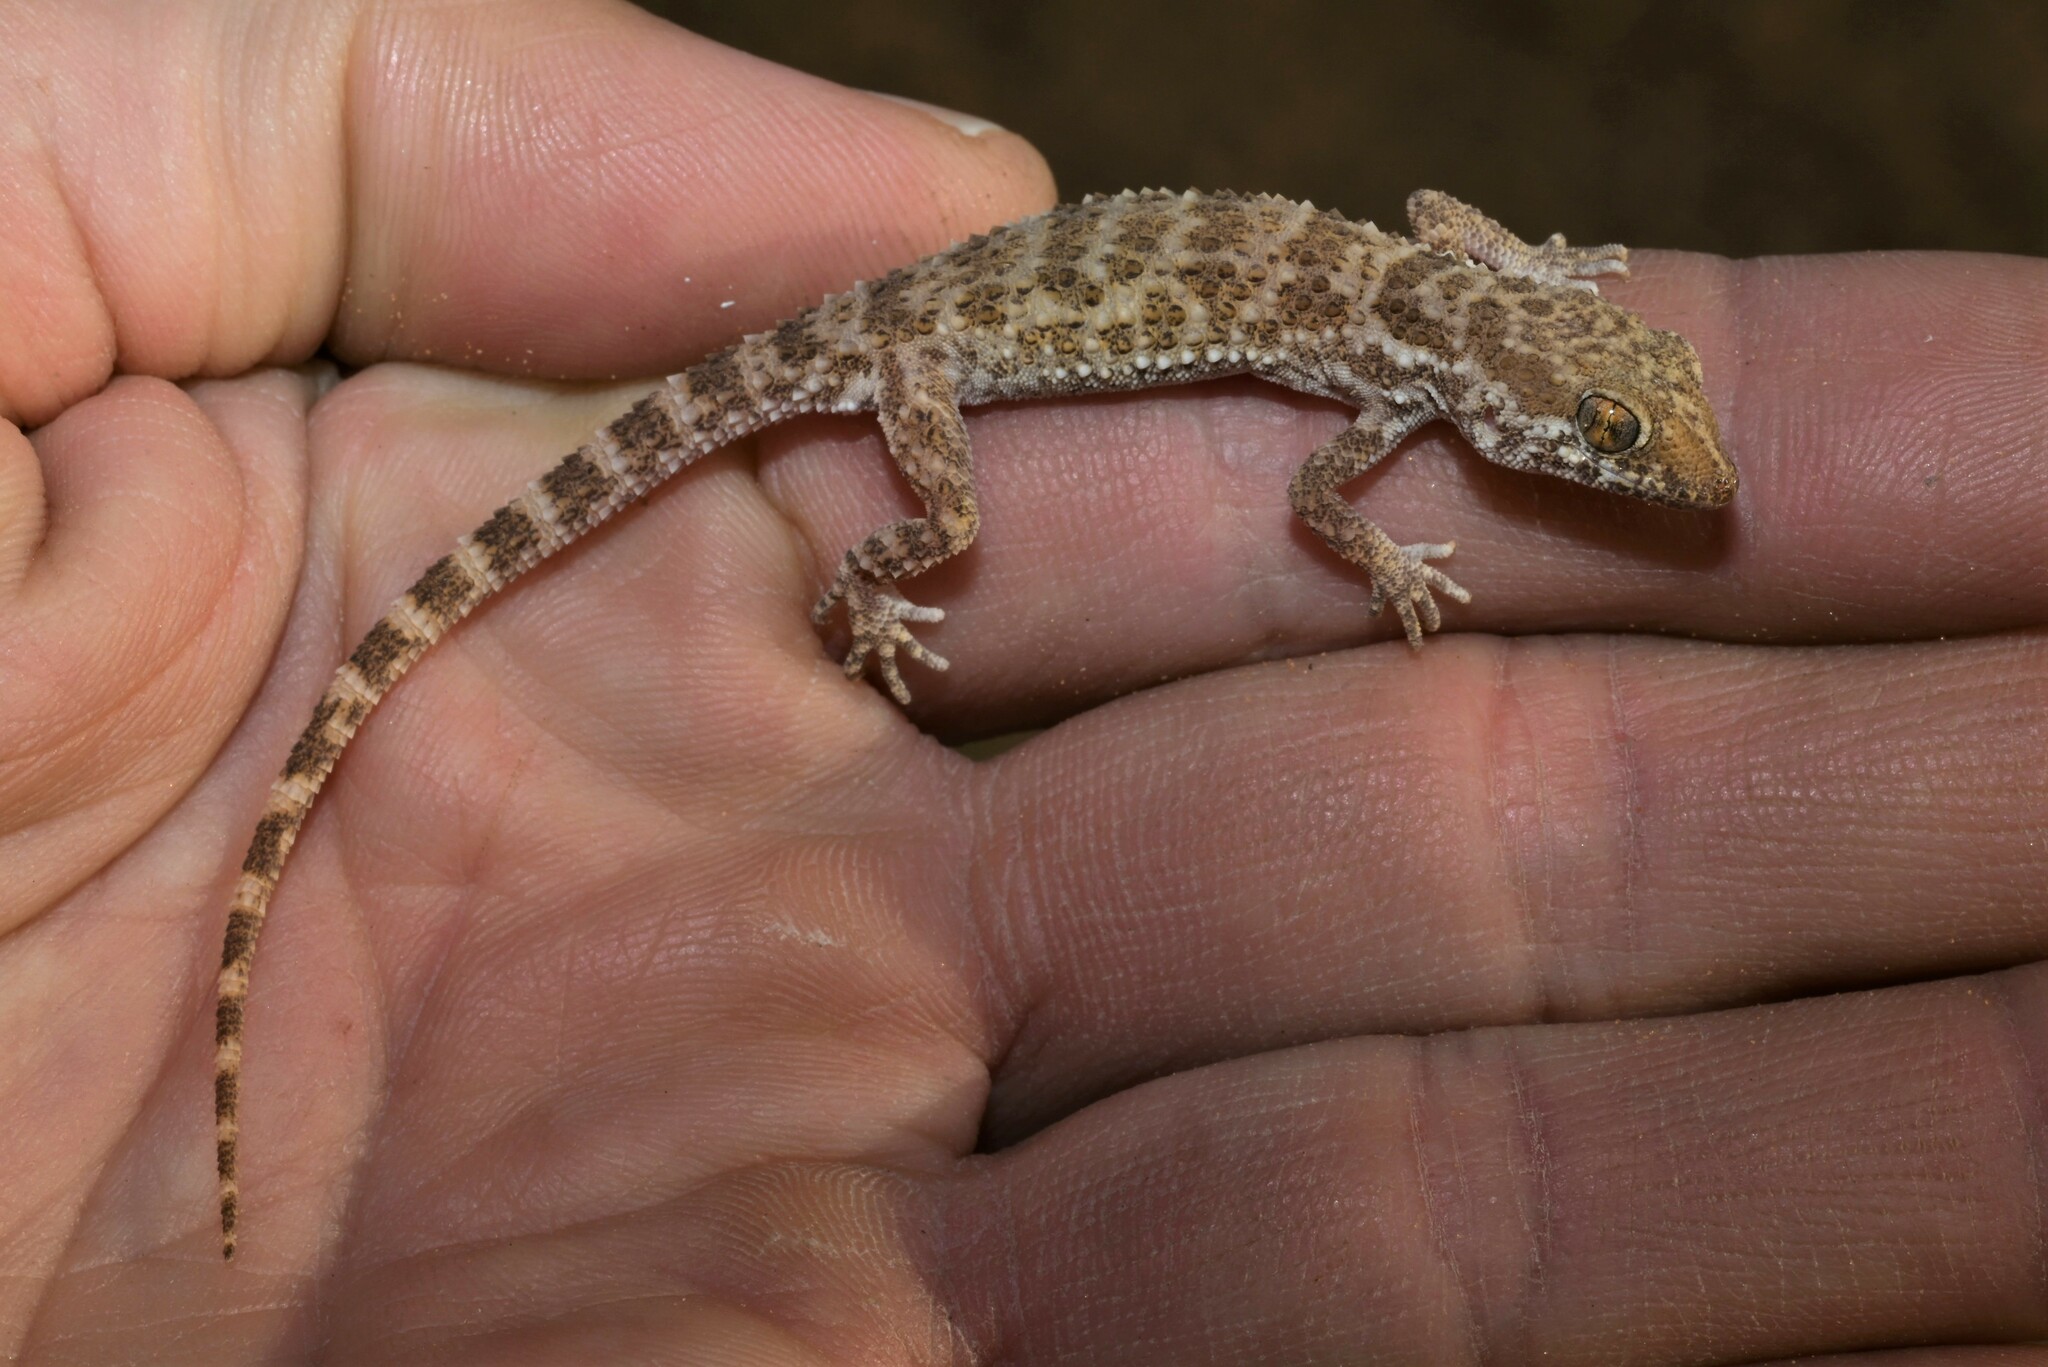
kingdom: Animalia
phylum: Chordata
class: Squamata
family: Gekkonidae
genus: Bunopus
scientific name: Bunopus tuberculatus
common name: Southern tuberculated gecko
